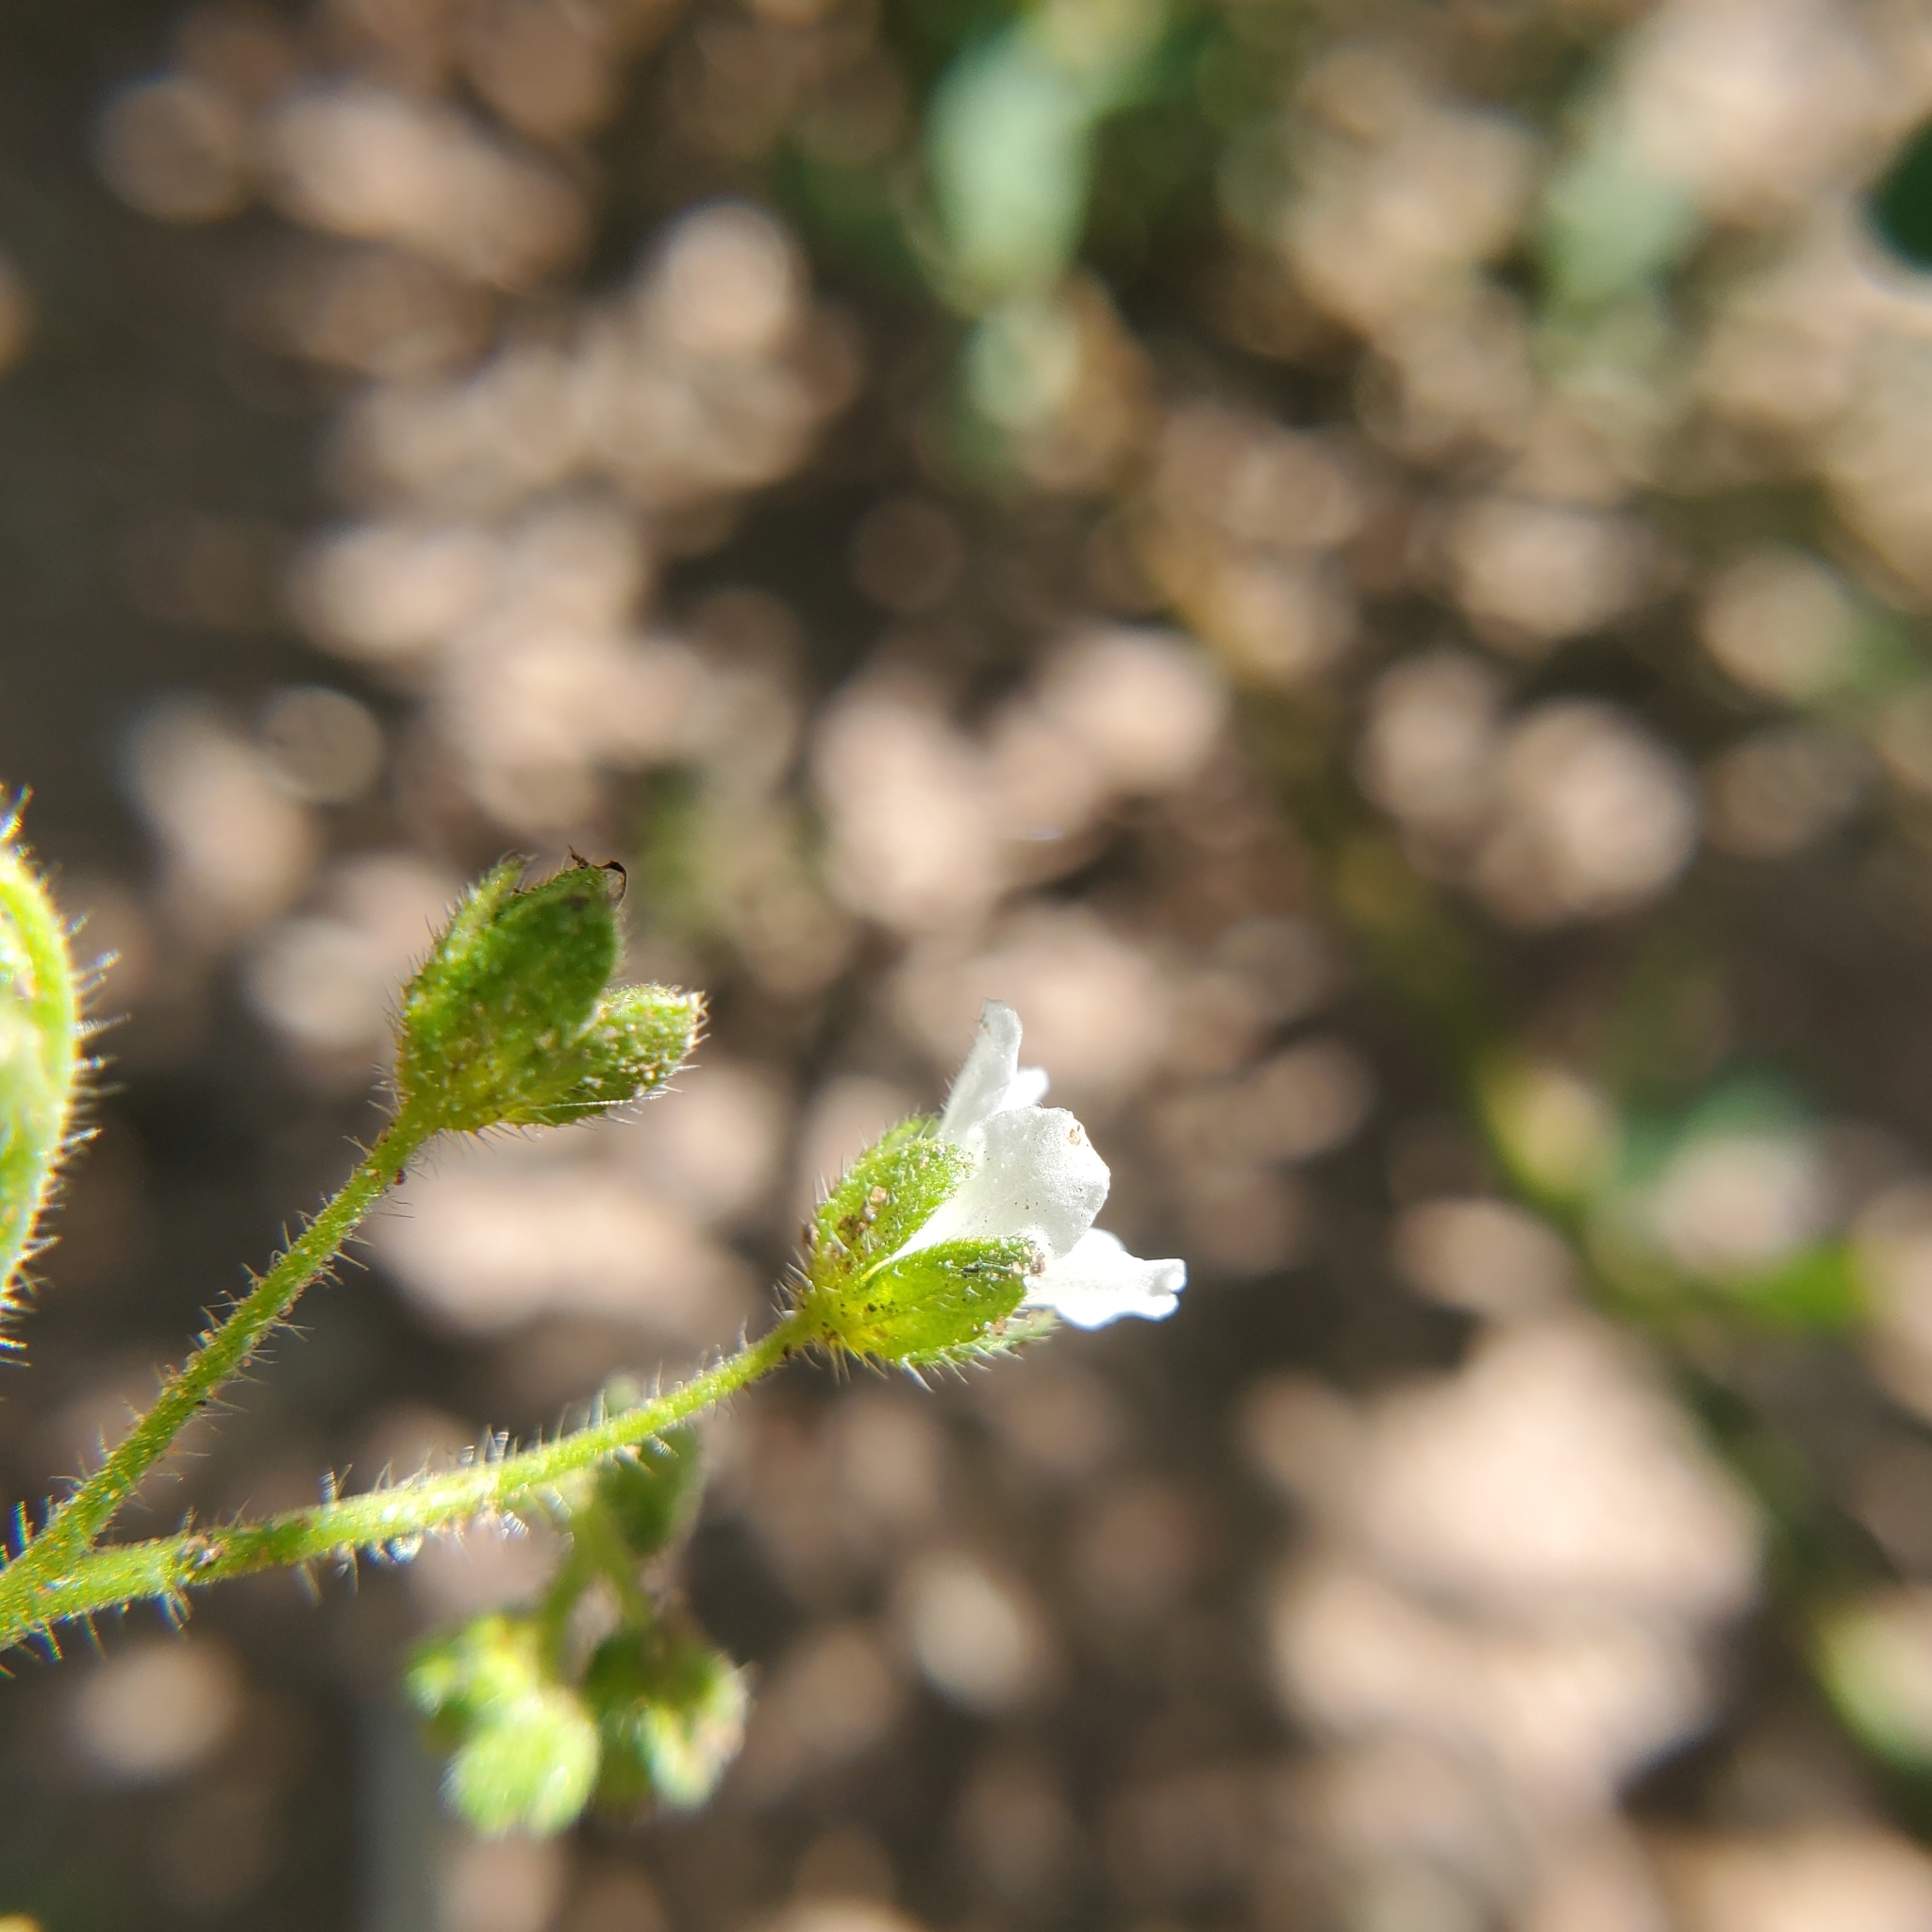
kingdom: Plantae
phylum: Tracheophyta
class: Magnoliopsida
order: Boraginales
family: Hydrophyllaceae
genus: Eucrypta
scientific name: Eucrypta chrysanthemifolia
